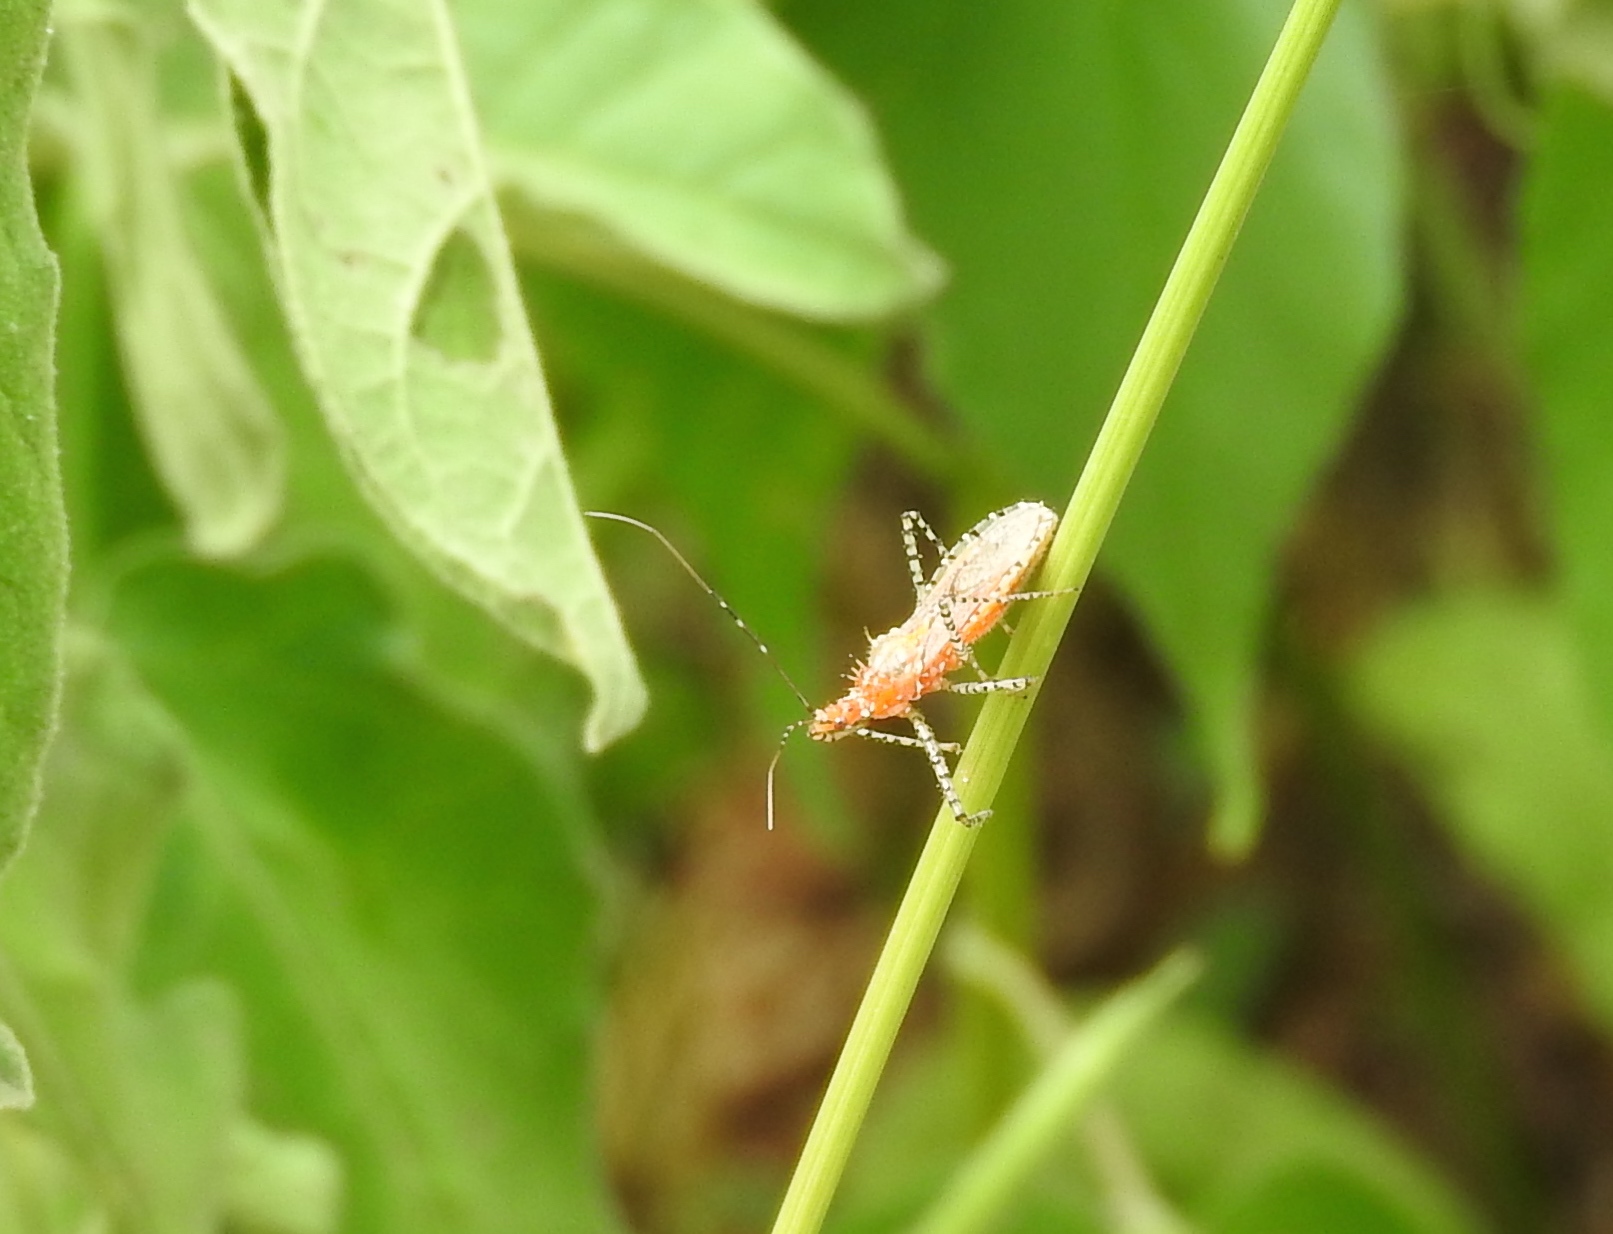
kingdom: Animalia
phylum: Arthropoda
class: Insecta
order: Hemiptera
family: Reduviidae
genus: Pselliopus
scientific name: Pselliopus punctipes
